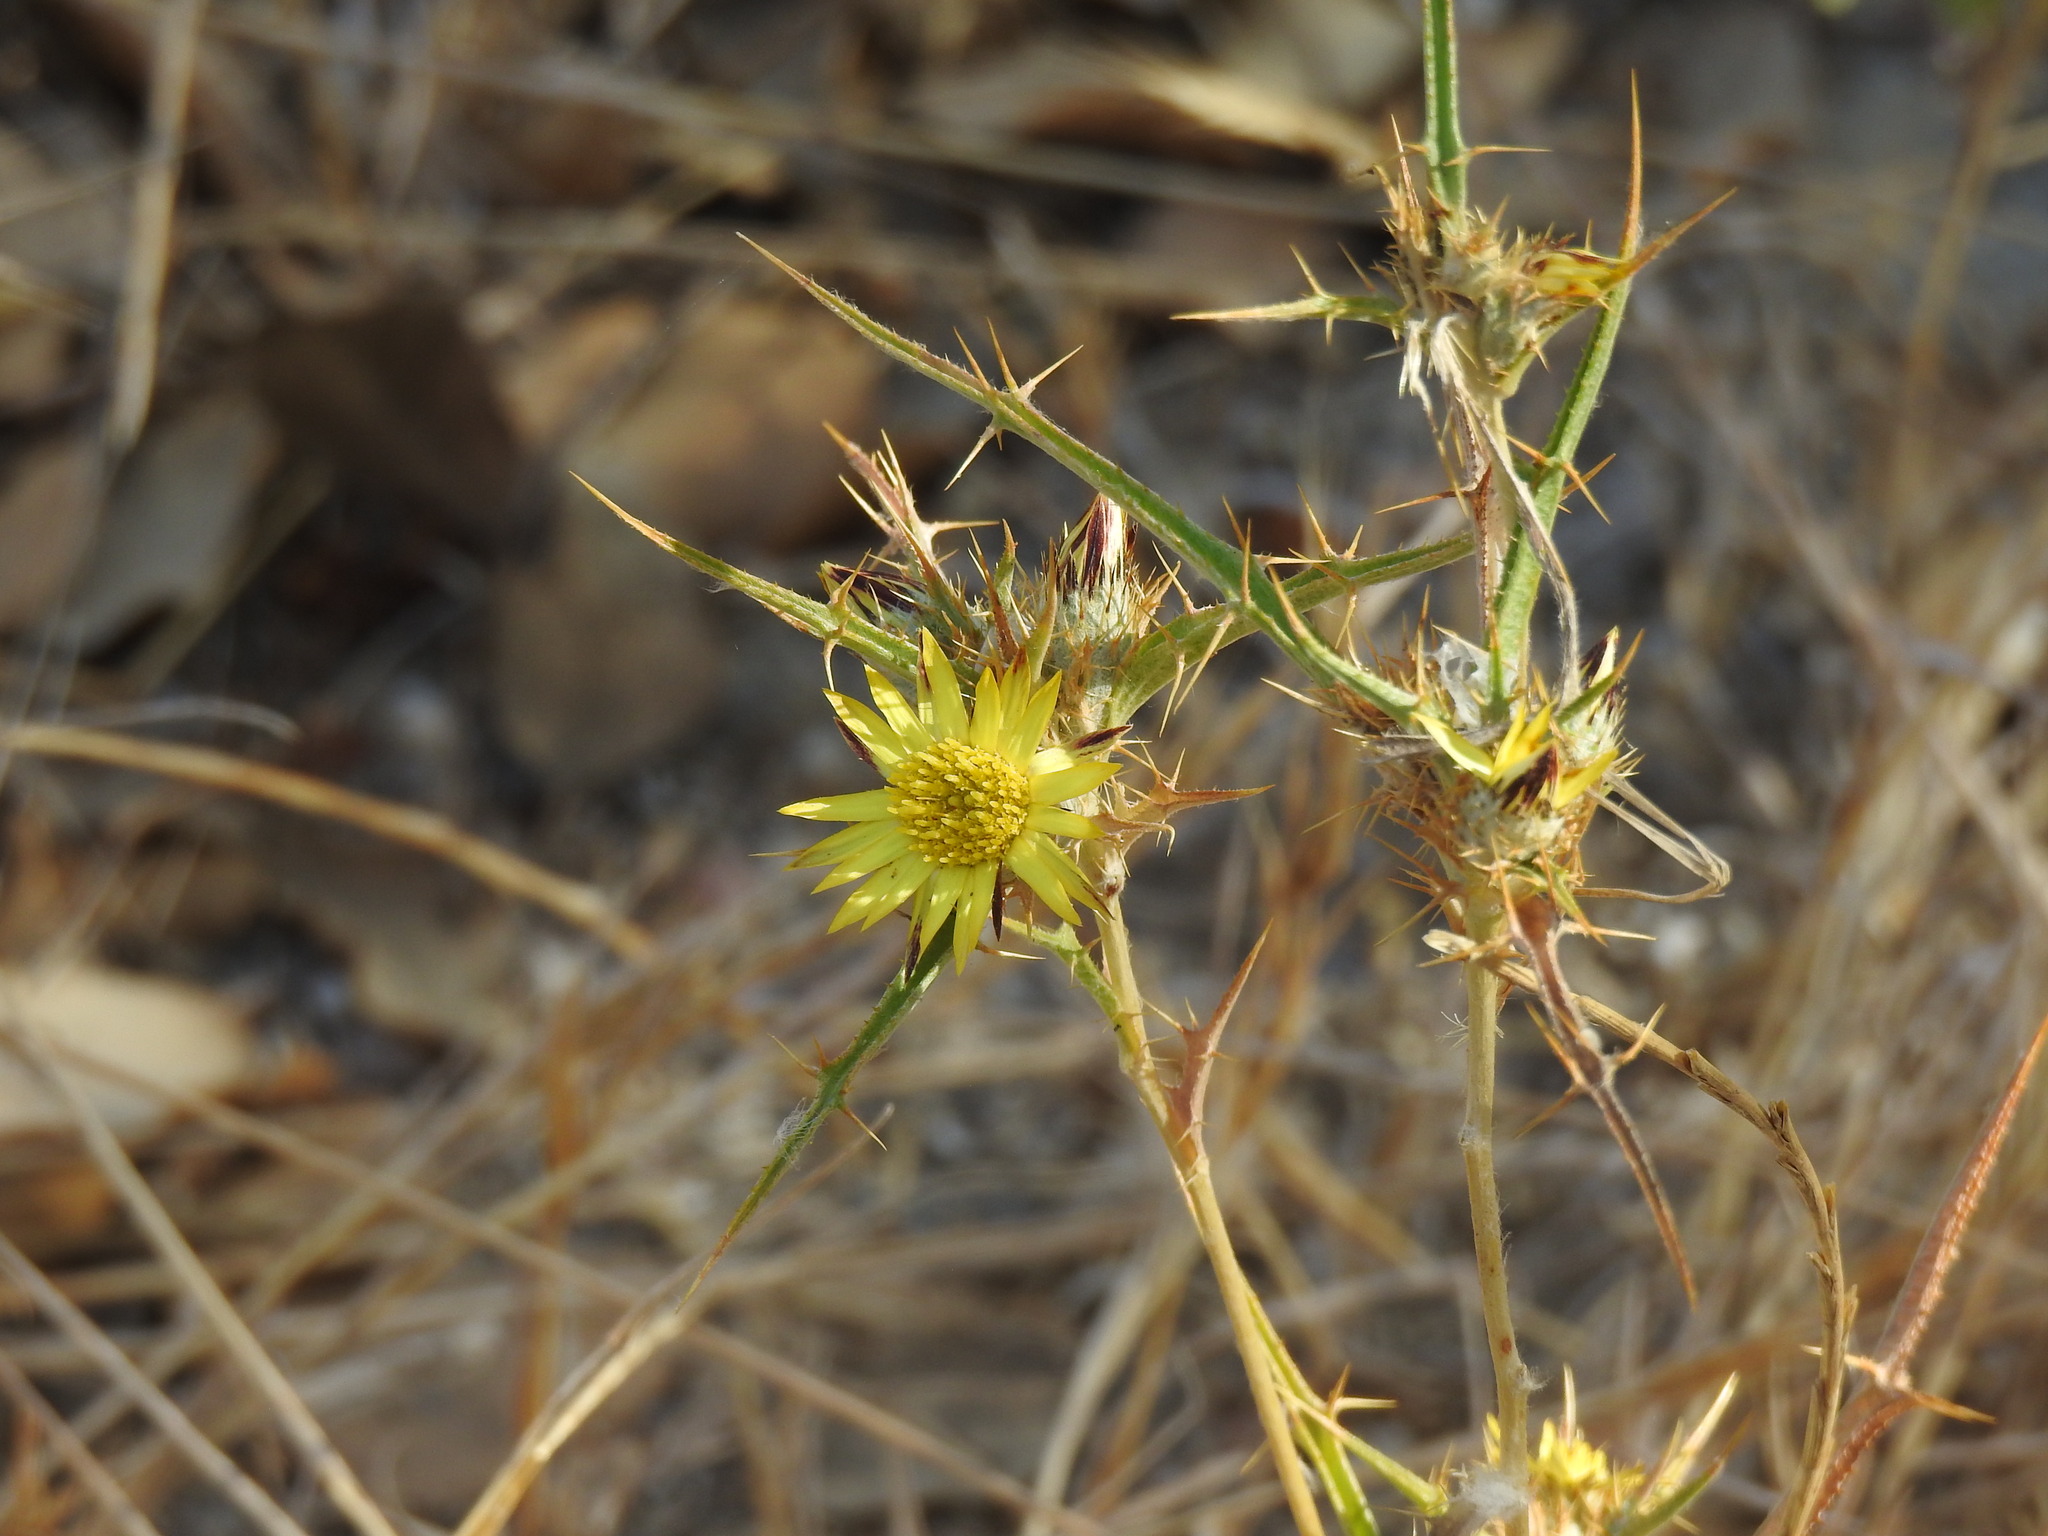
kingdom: Plantae
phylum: Tracheophyta
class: Magnoliopsida
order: Asterales
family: Asteraceae
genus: Carlina
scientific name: Carlina racemosa
